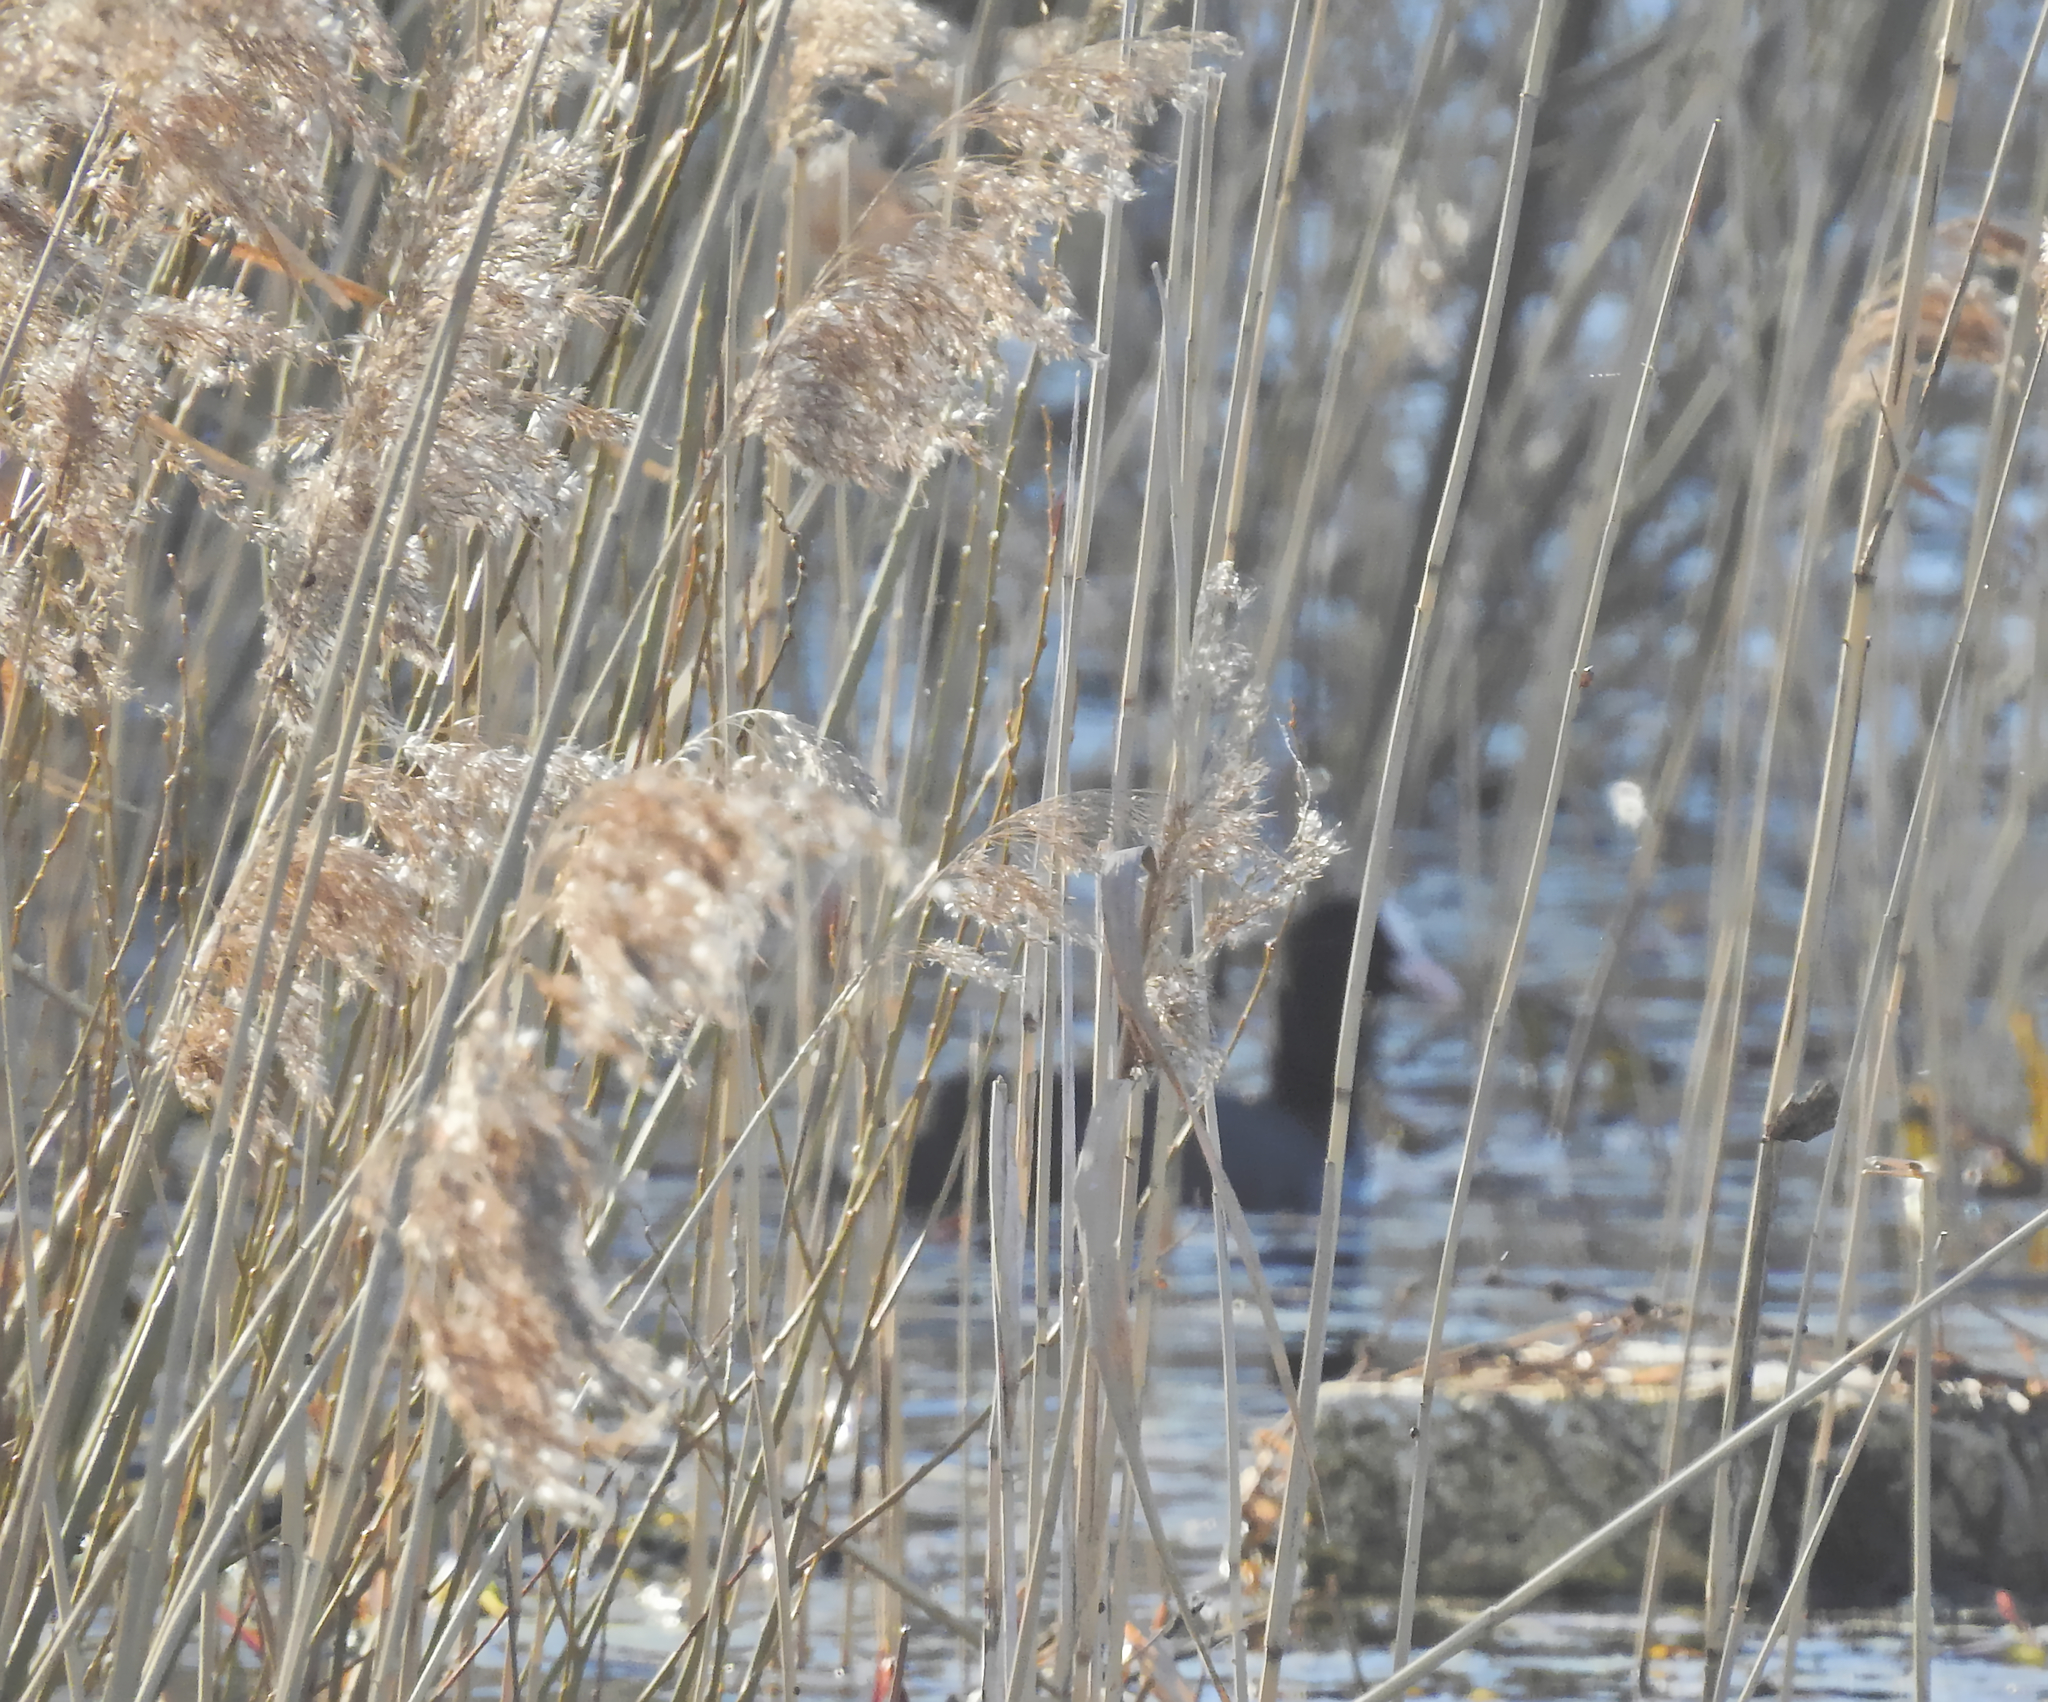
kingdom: Animalia
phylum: Chordata
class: Aves
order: Gruiformes
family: Rallidae
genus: Fulica
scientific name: Fulica atra
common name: Eurasian coot
